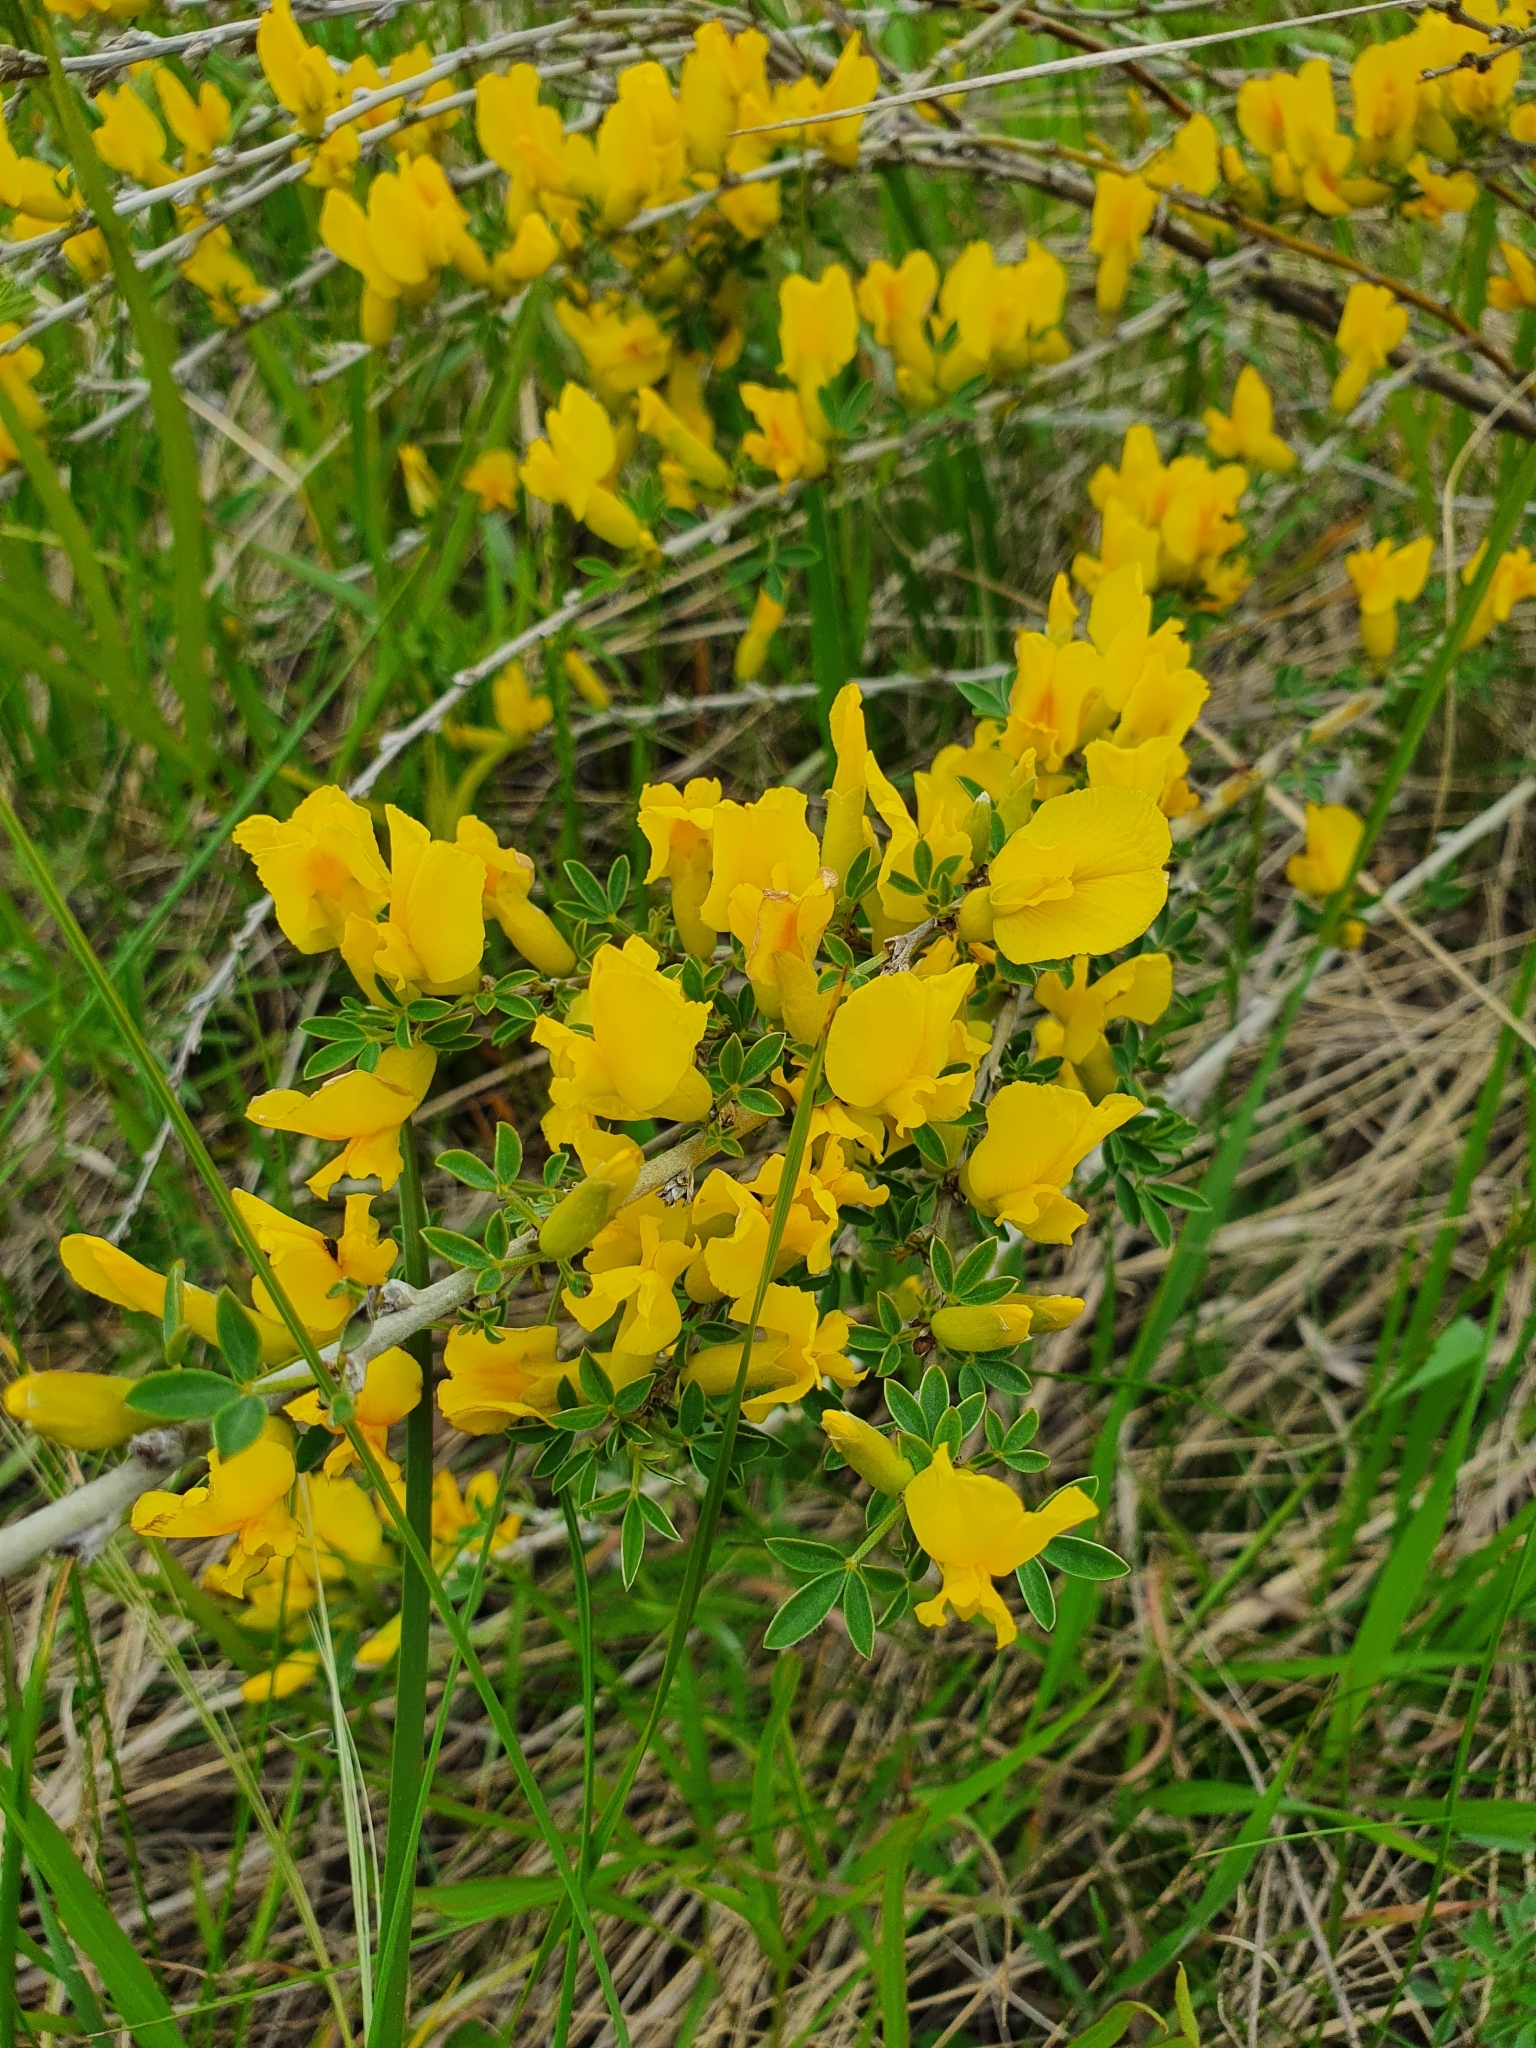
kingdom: Plantae
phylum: Tracheophyta
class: Magnoliopsida
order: Fabales
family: Fabaceae
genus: Chamaecytisus
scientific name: Chamaecytisus ruthenicus
